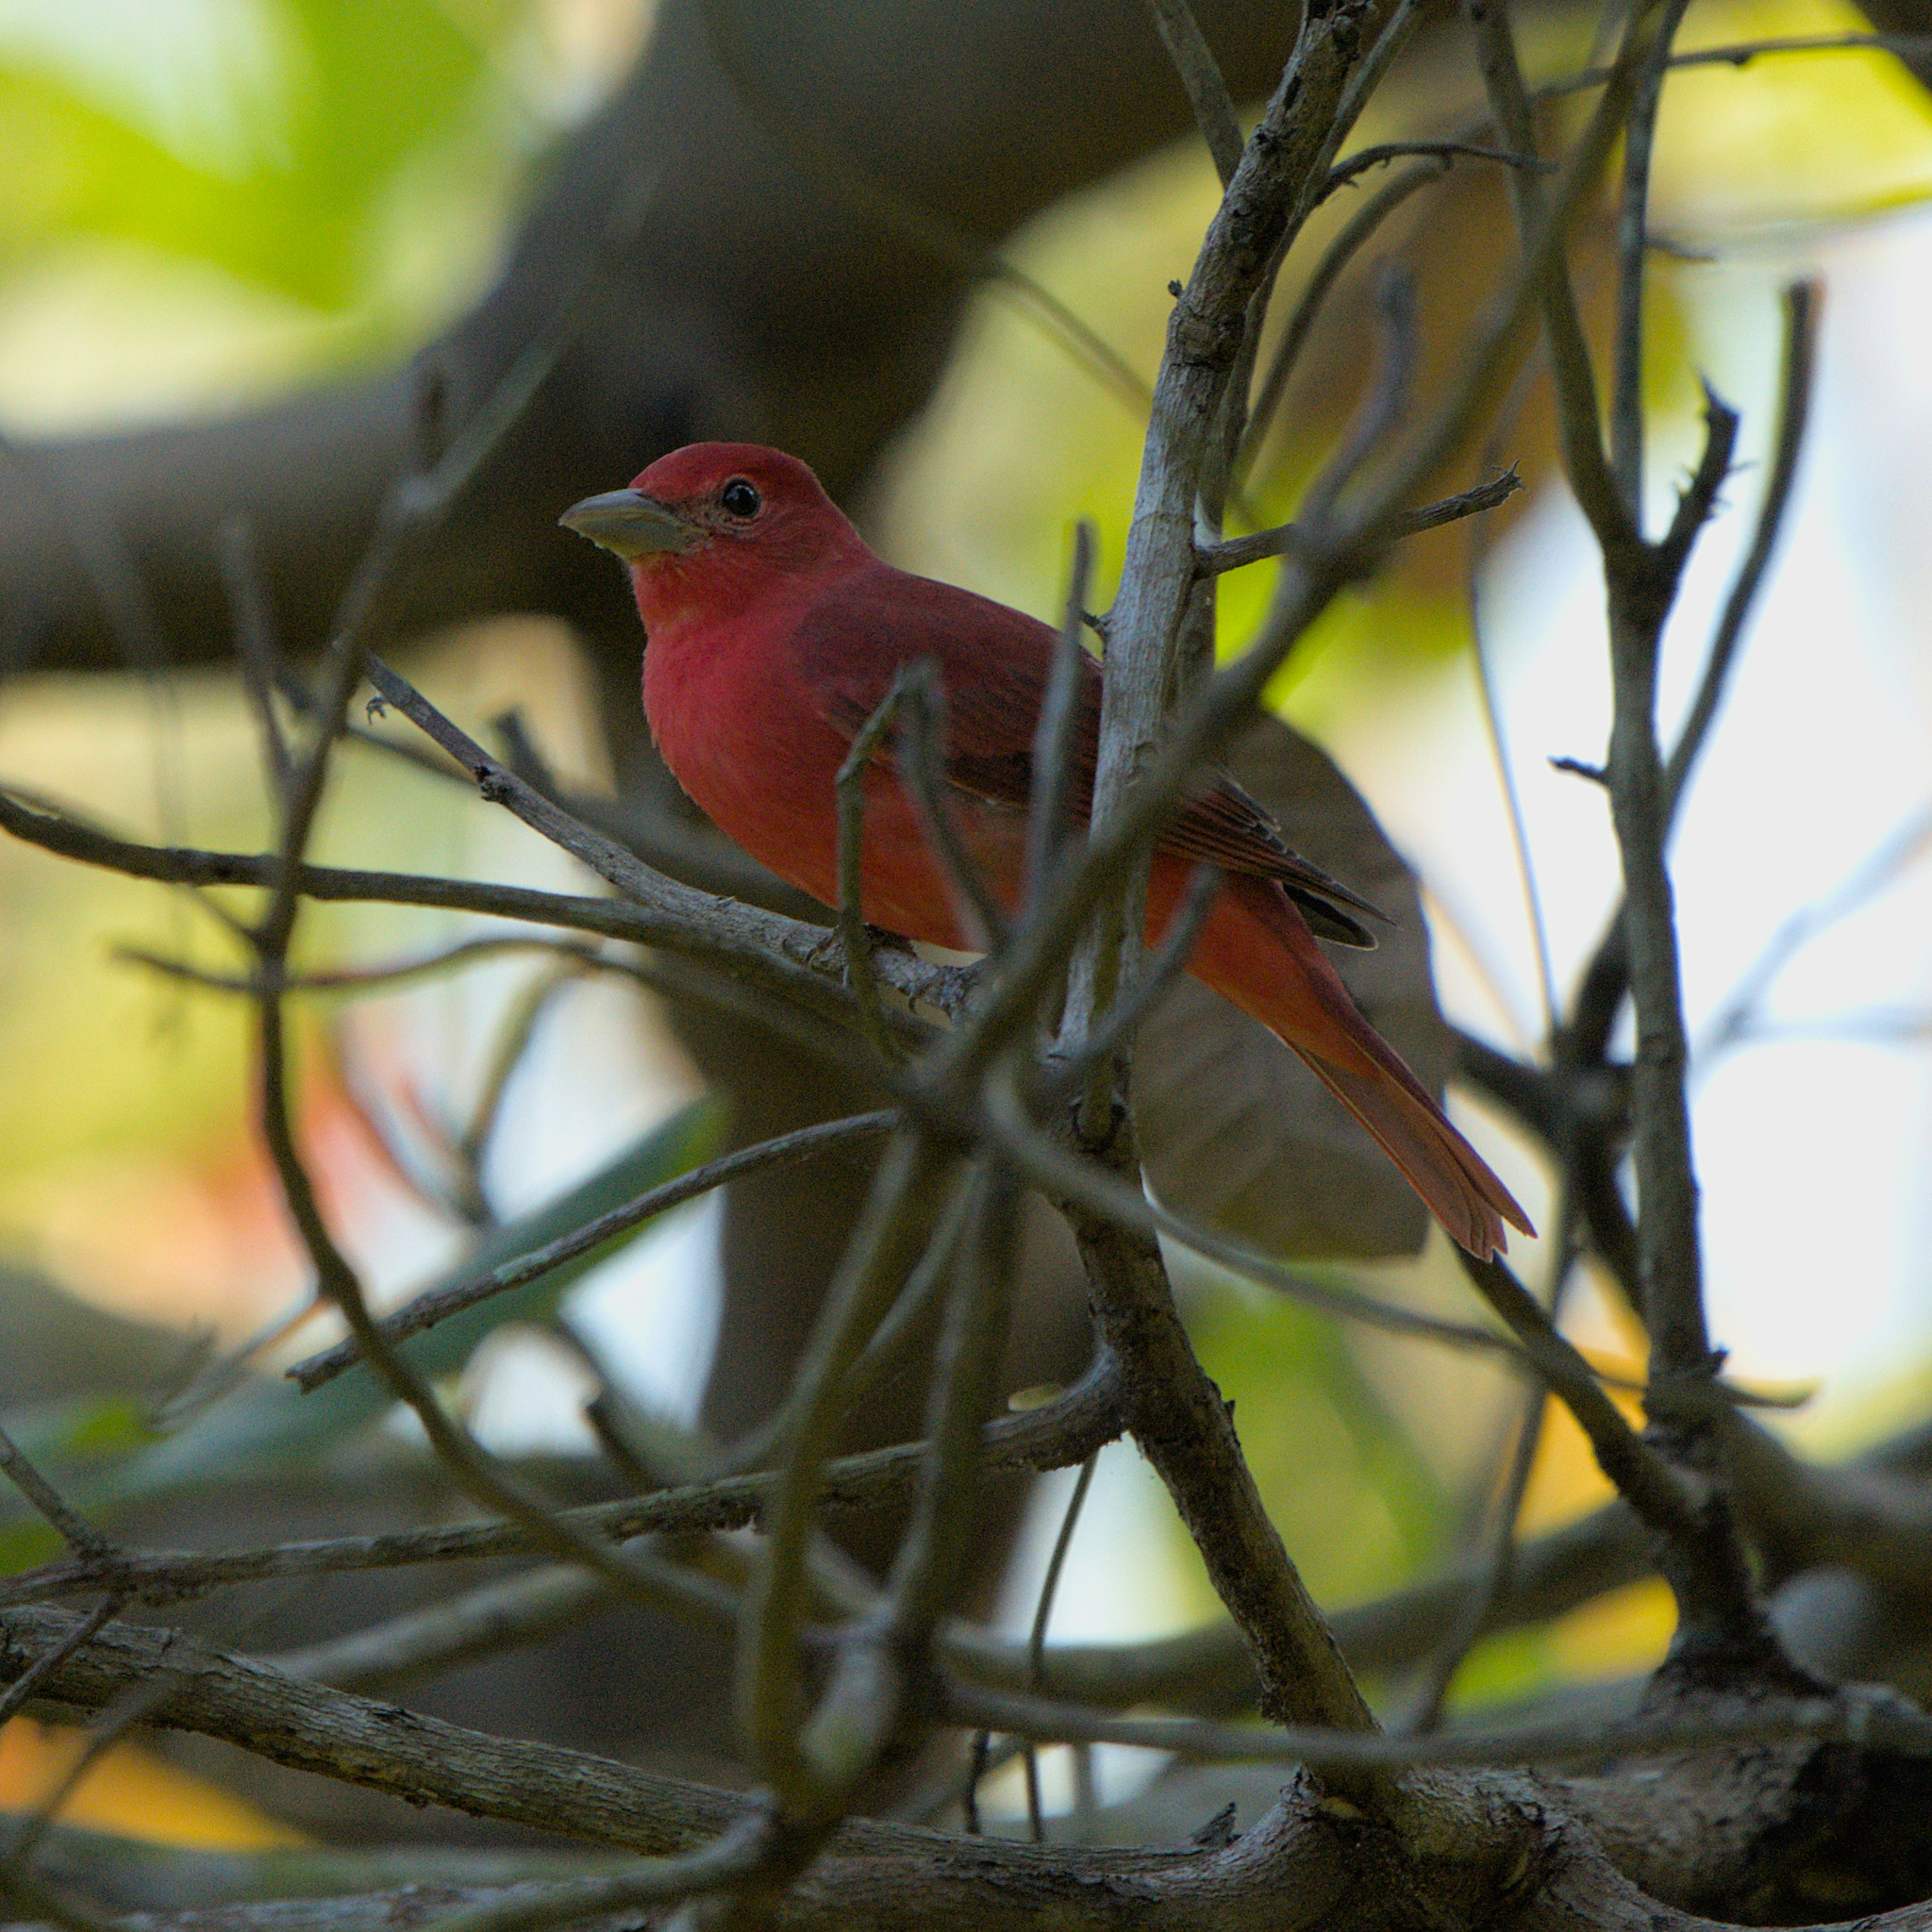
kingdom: Animalia
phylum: Chordata
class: Aves
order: Passeriformes
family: Cardinalidae
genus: Piranga
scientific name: Piranga rubra
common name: Summer tanager
